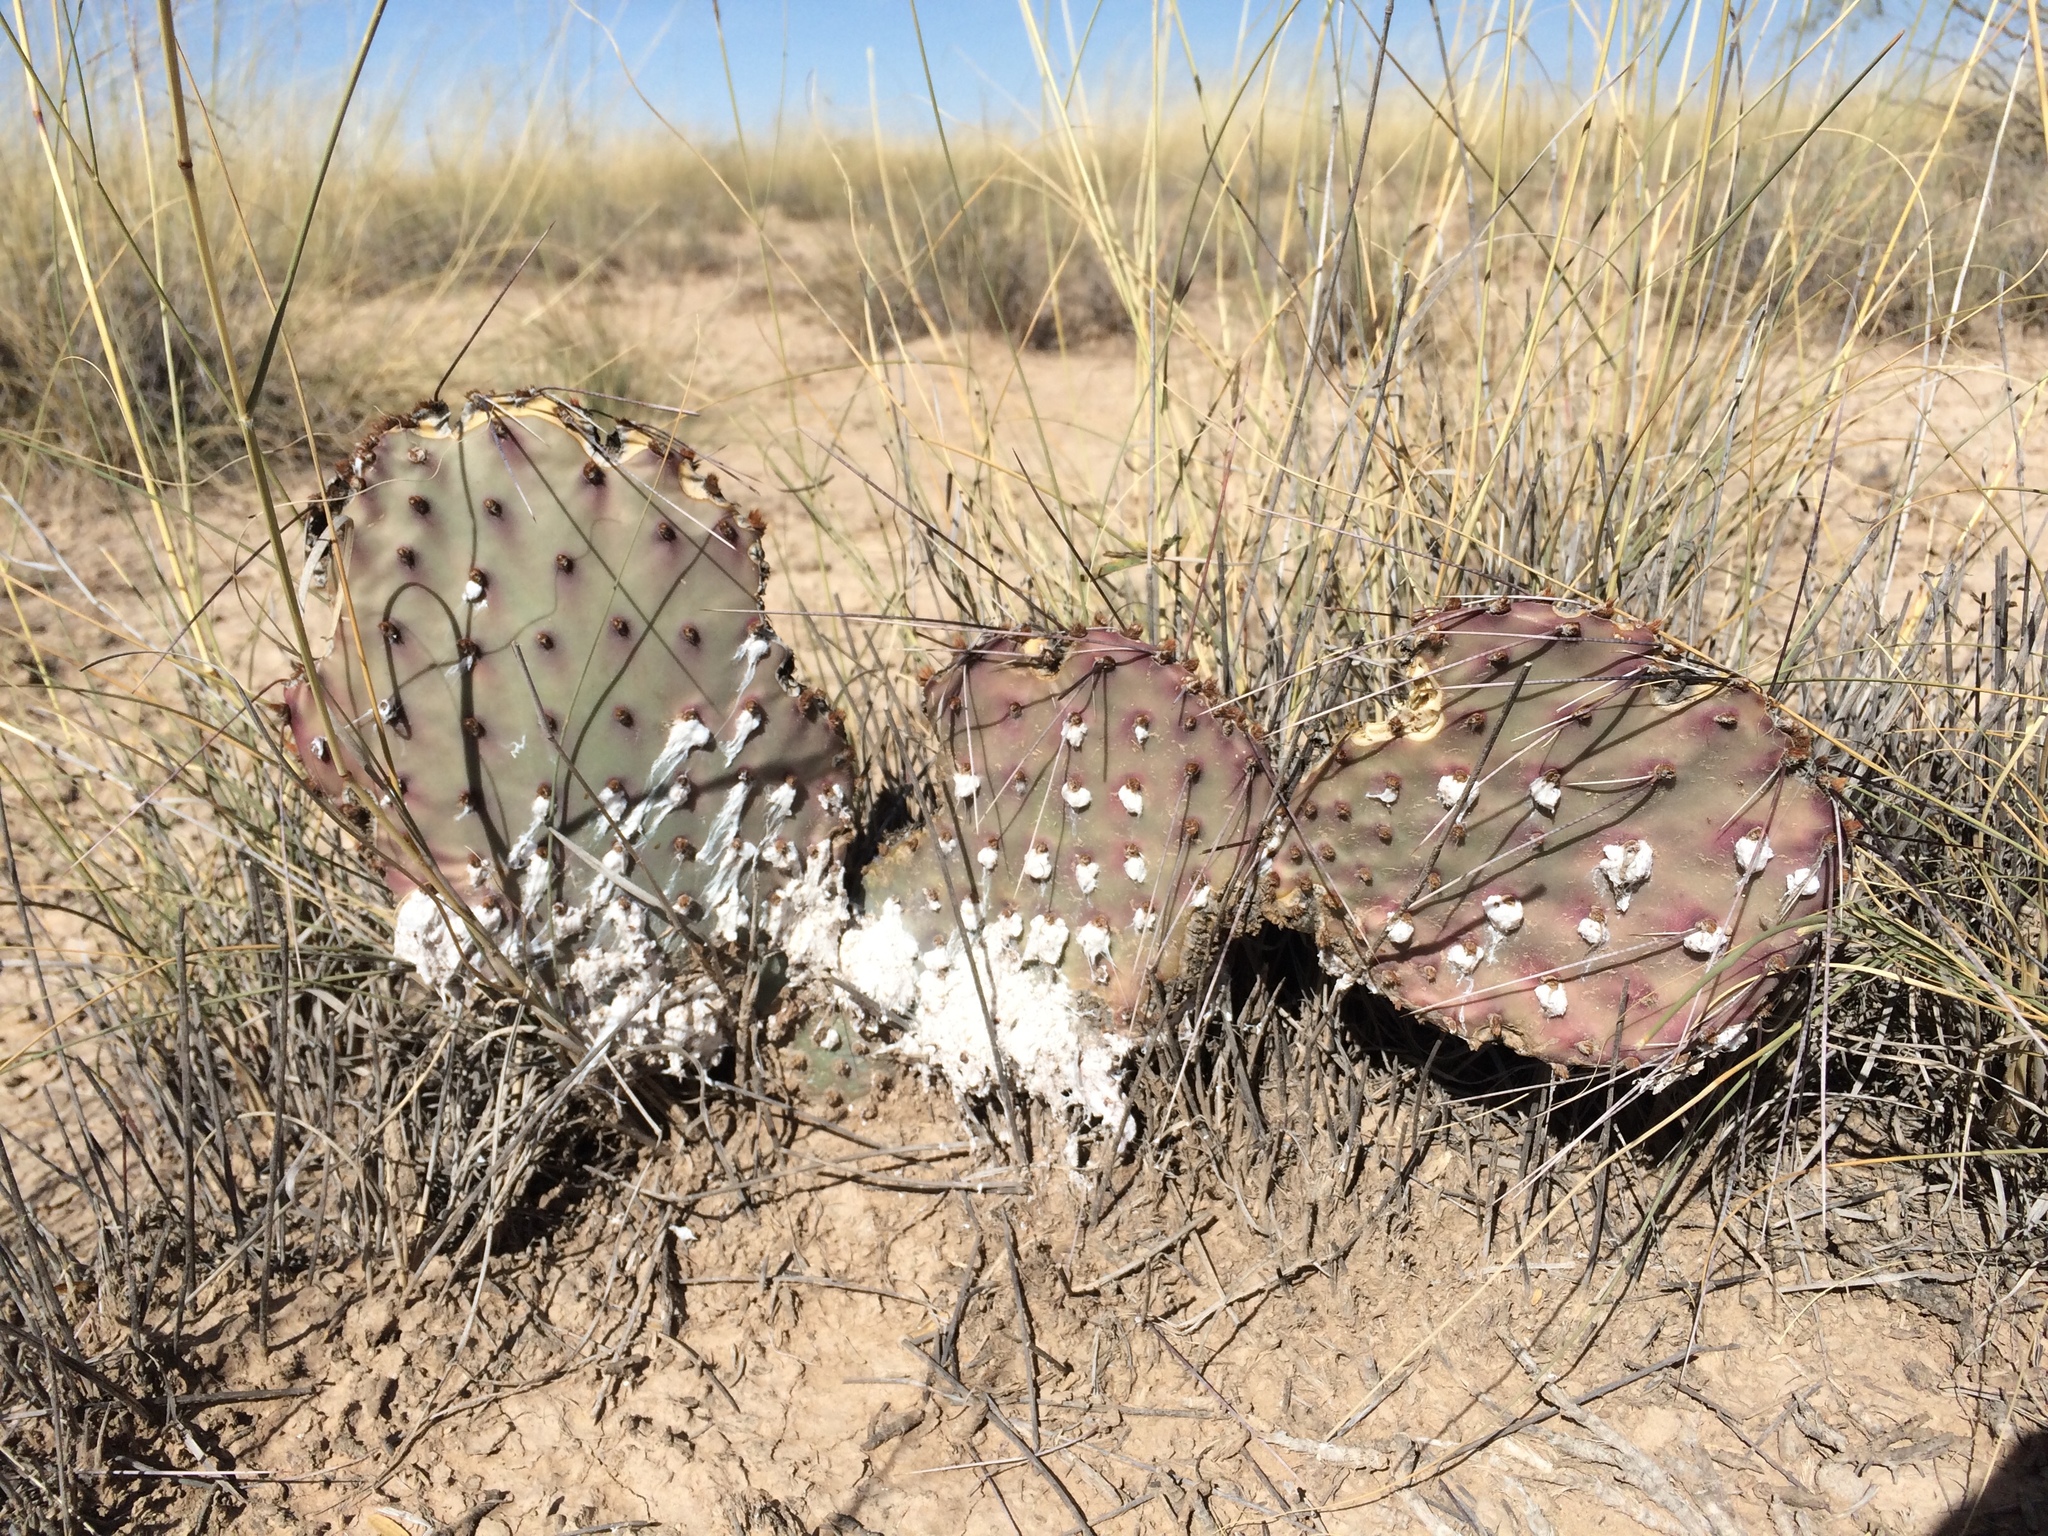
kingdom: Plantae
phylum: Tracheophyta
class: Magnoliopsida
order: Caryophyllales
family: Cactaceae
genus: Opuntia
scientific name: Opuntia macrocentra
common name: Purple prickly-pear
